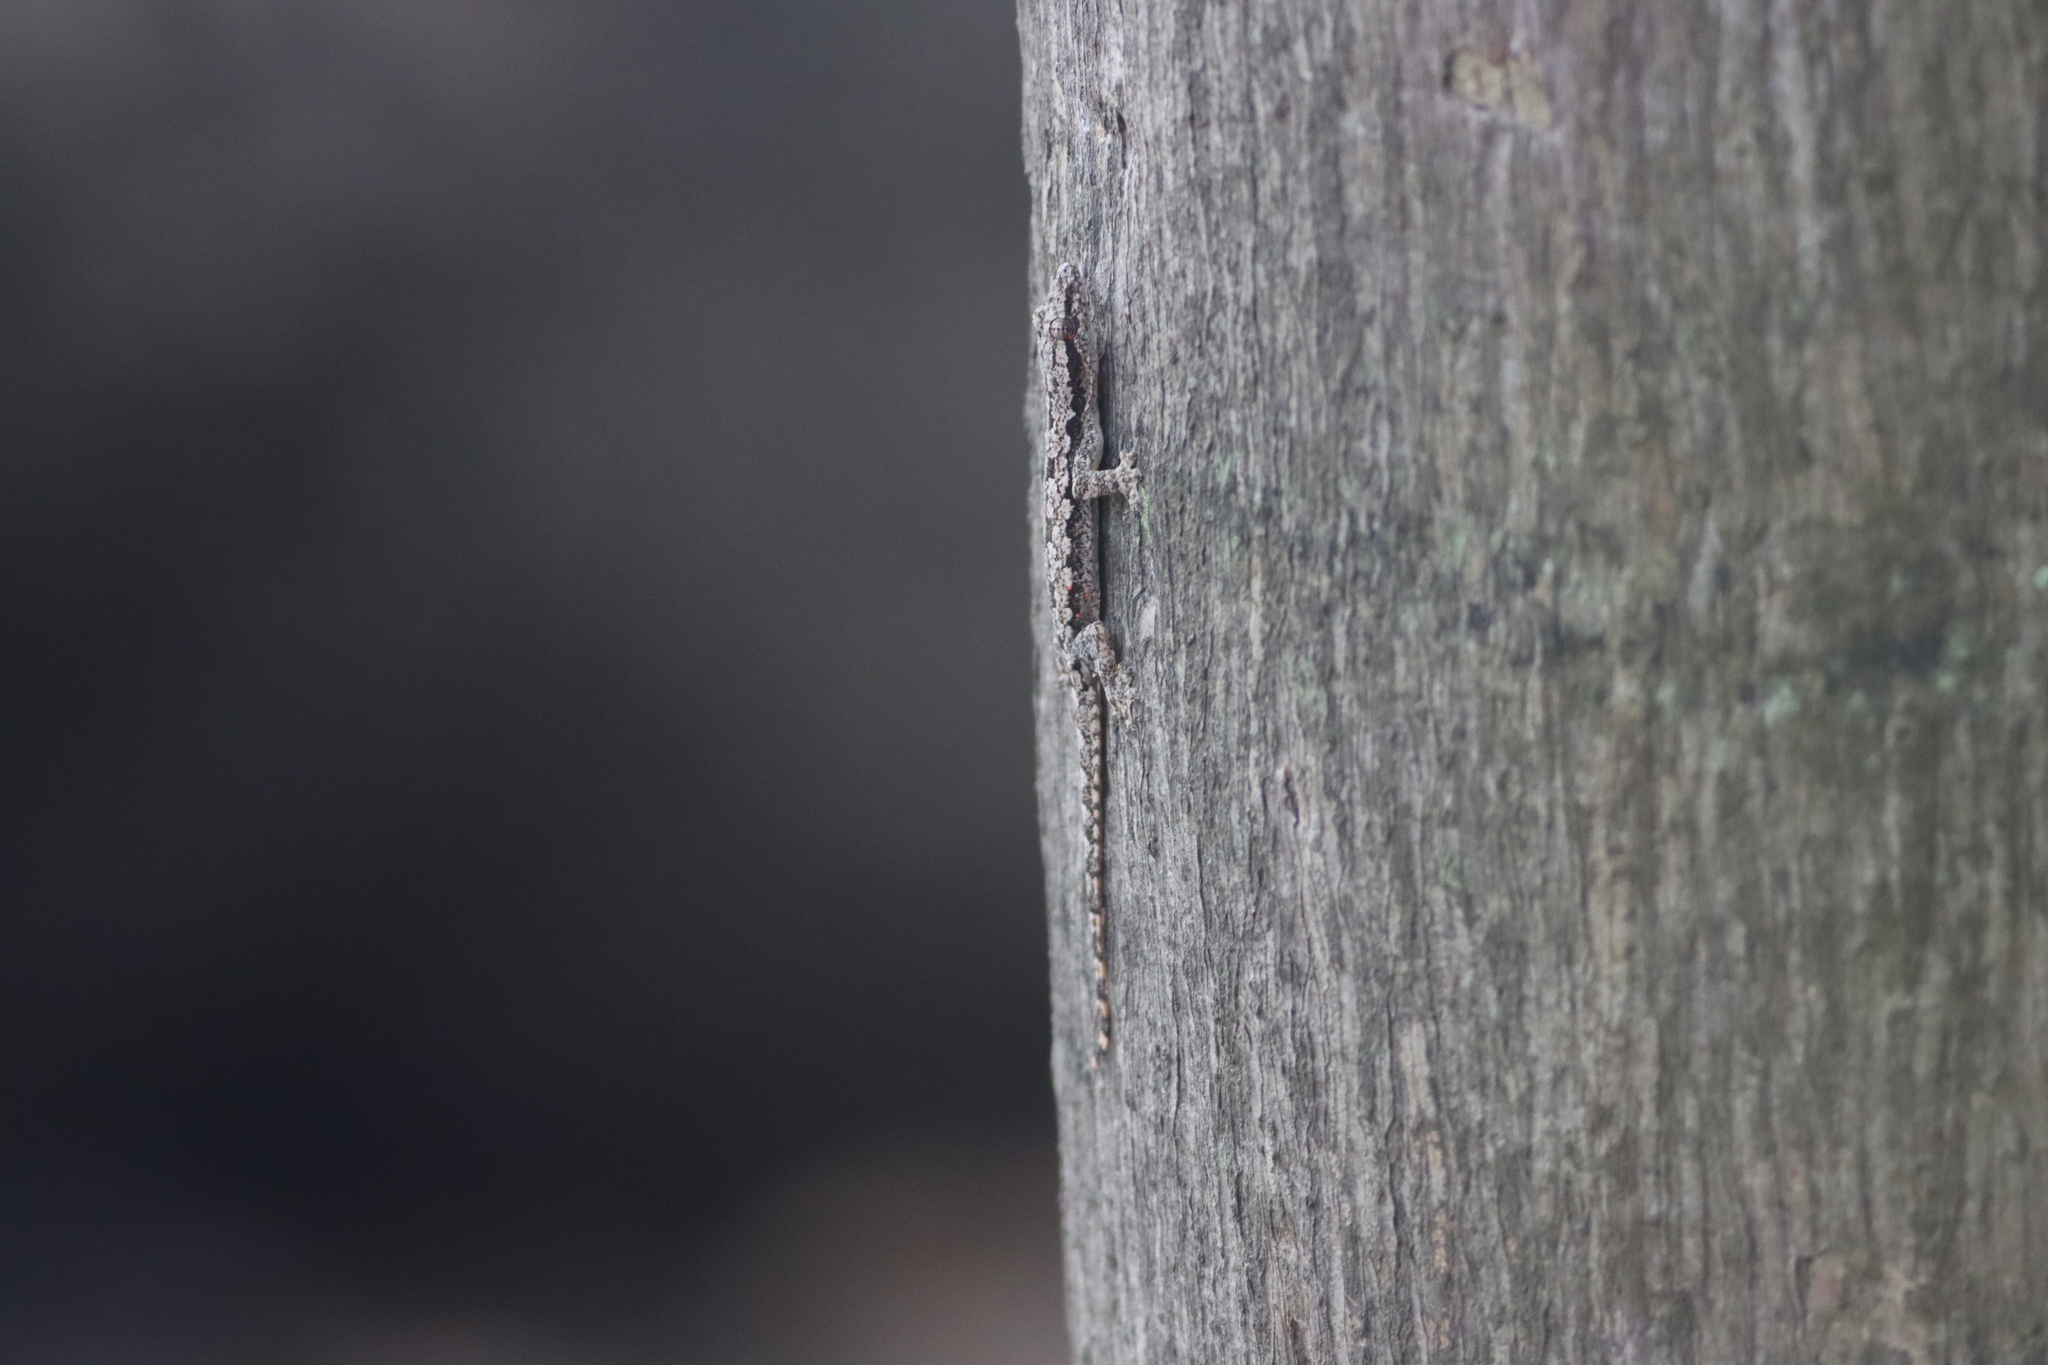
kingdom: Animalia
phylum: Chordata
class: Squamata
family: Gekkonidae
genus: Hemidactylus
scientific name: Hemidactylus platyurus
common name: Flat-tailed house gecko
